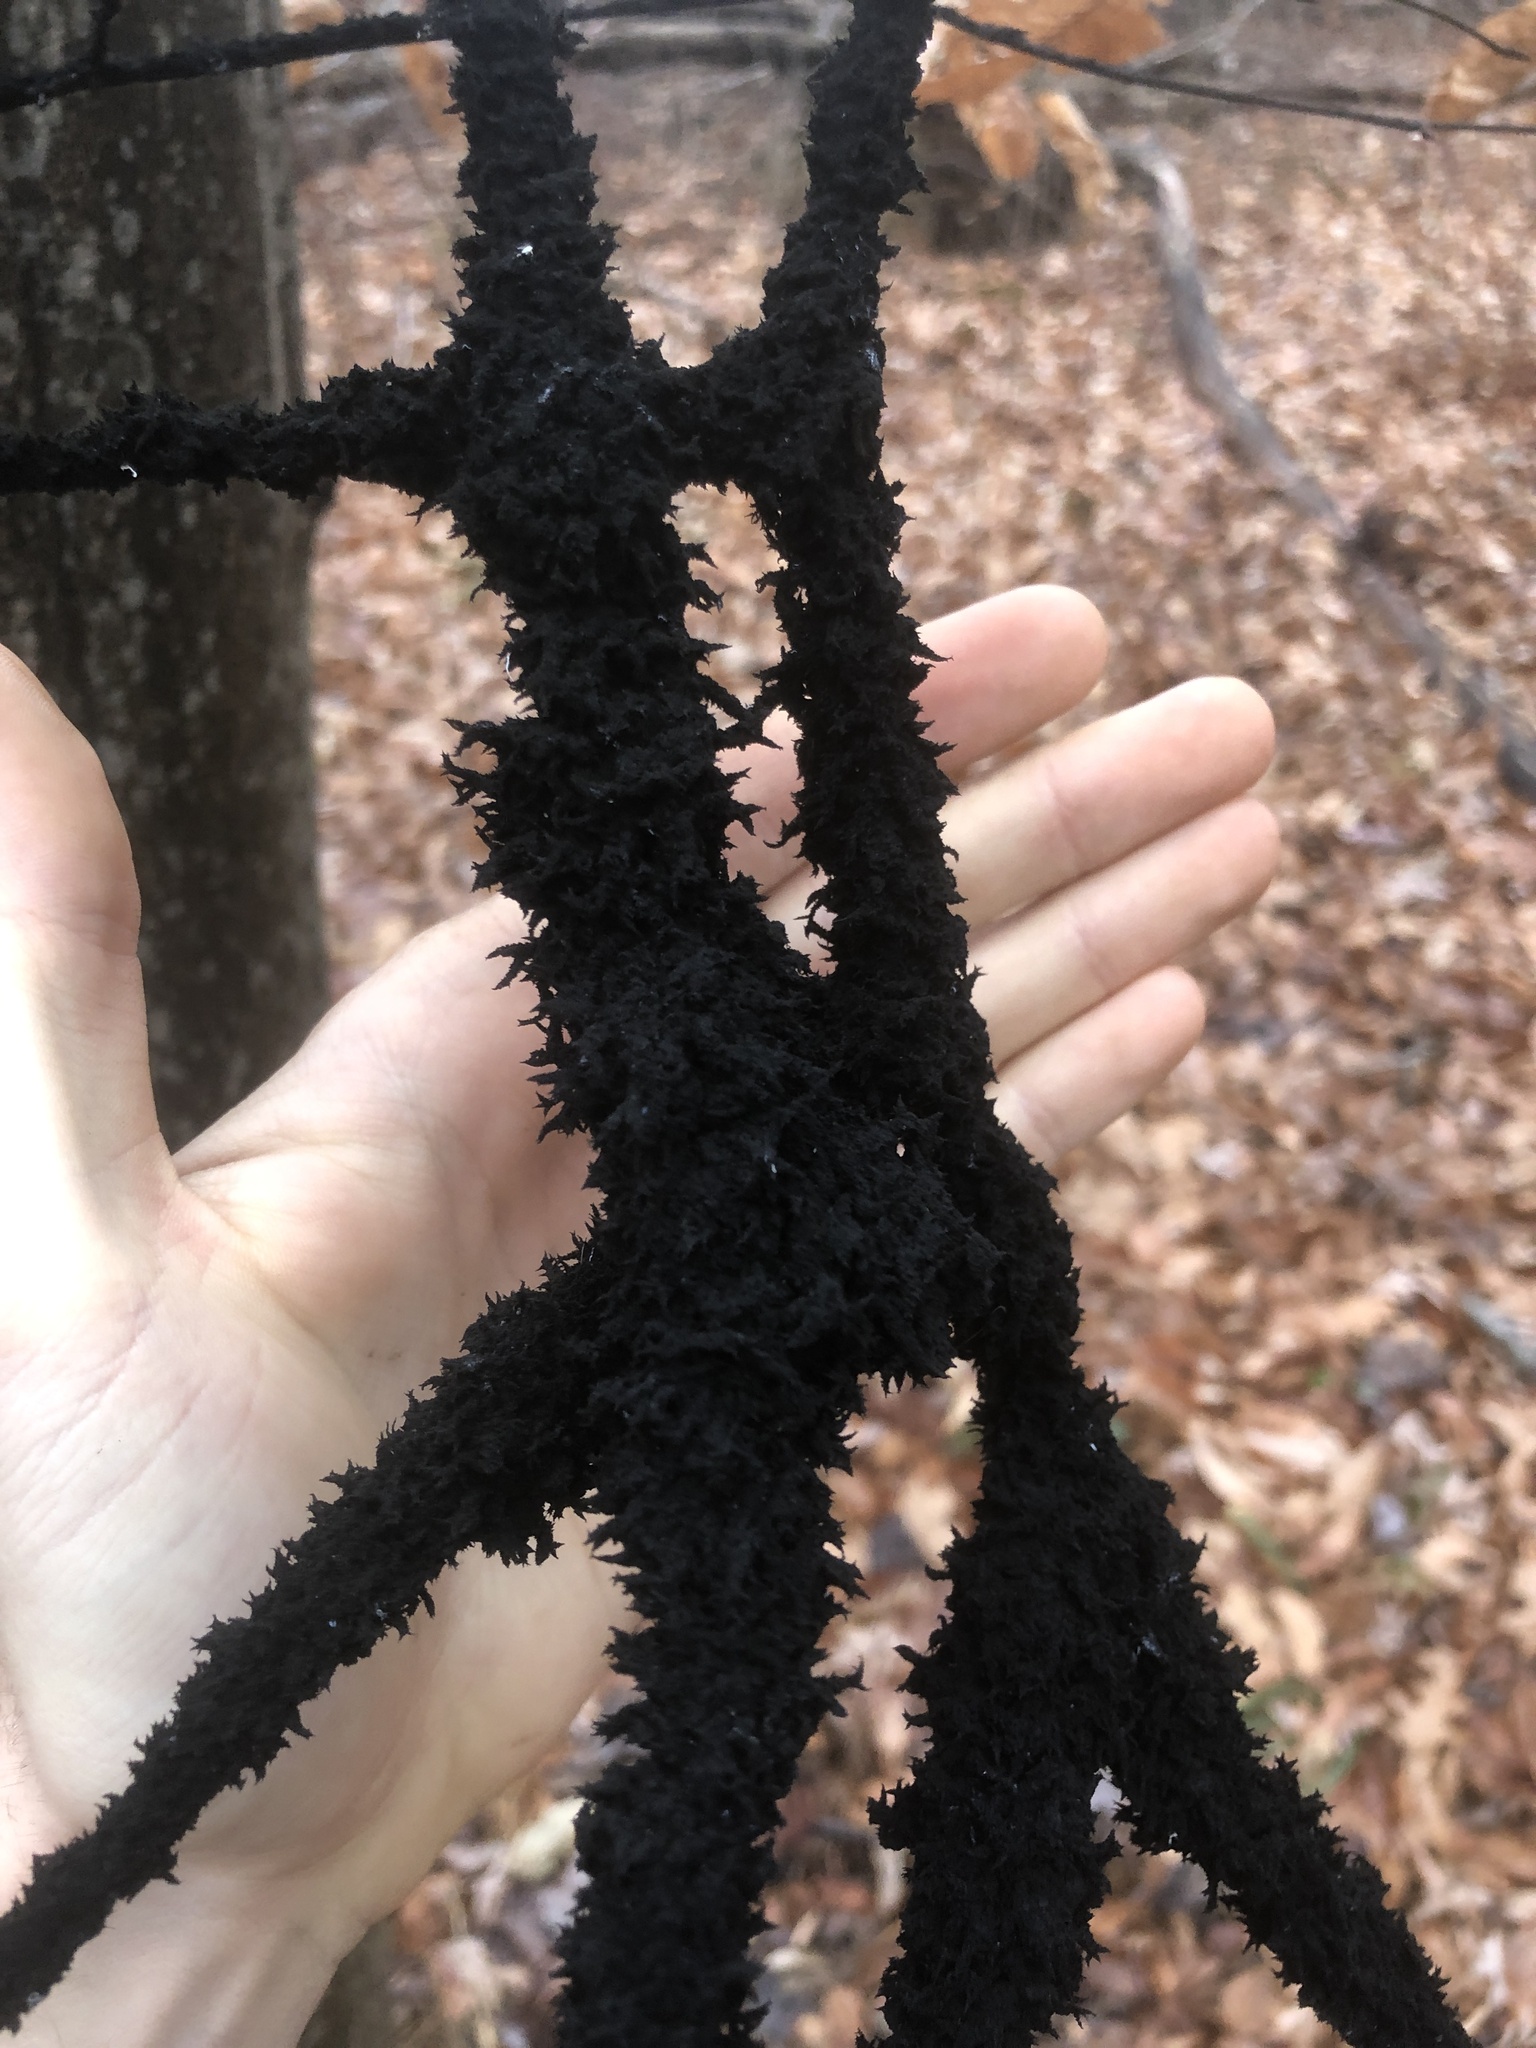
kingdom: Fungi
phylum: Ascomycota
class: Dothideomycetes
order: Capnodiales
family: Capnodiaceae
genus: Scorias
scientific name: Scorias spongiosa
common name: Black sooty mold
